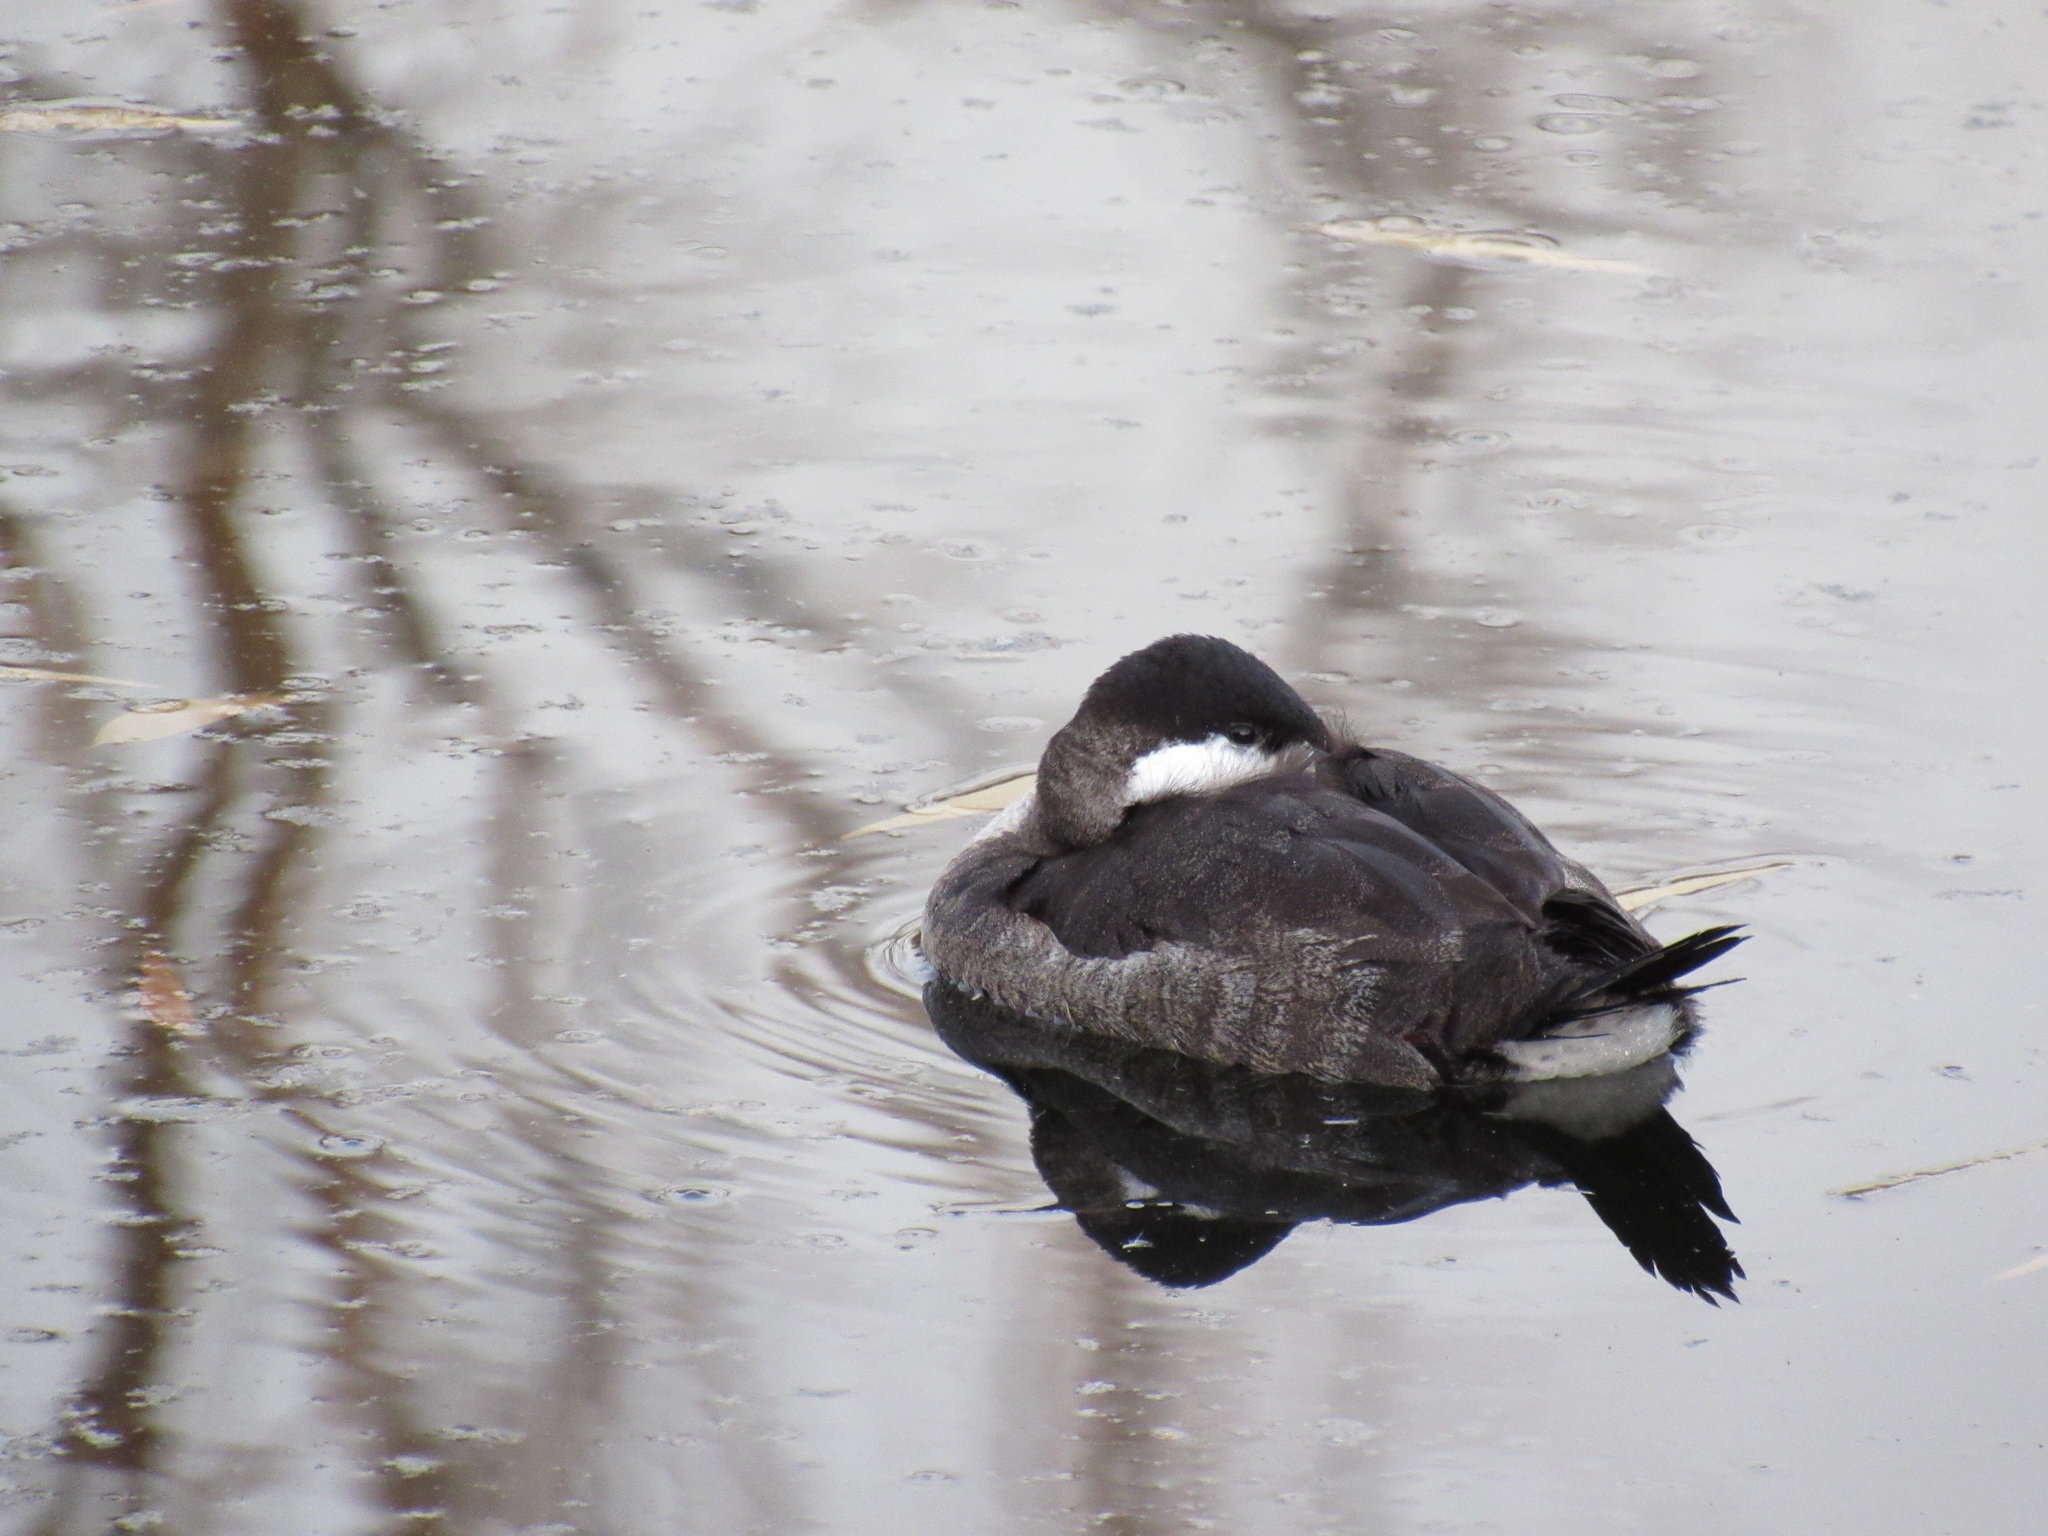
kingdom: Animalia
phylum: Chordata
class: Aves
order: Anseriformes
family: Anatidae
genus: Oxyura
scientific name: Oxyura jamaicensis
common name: Ruddy duck
